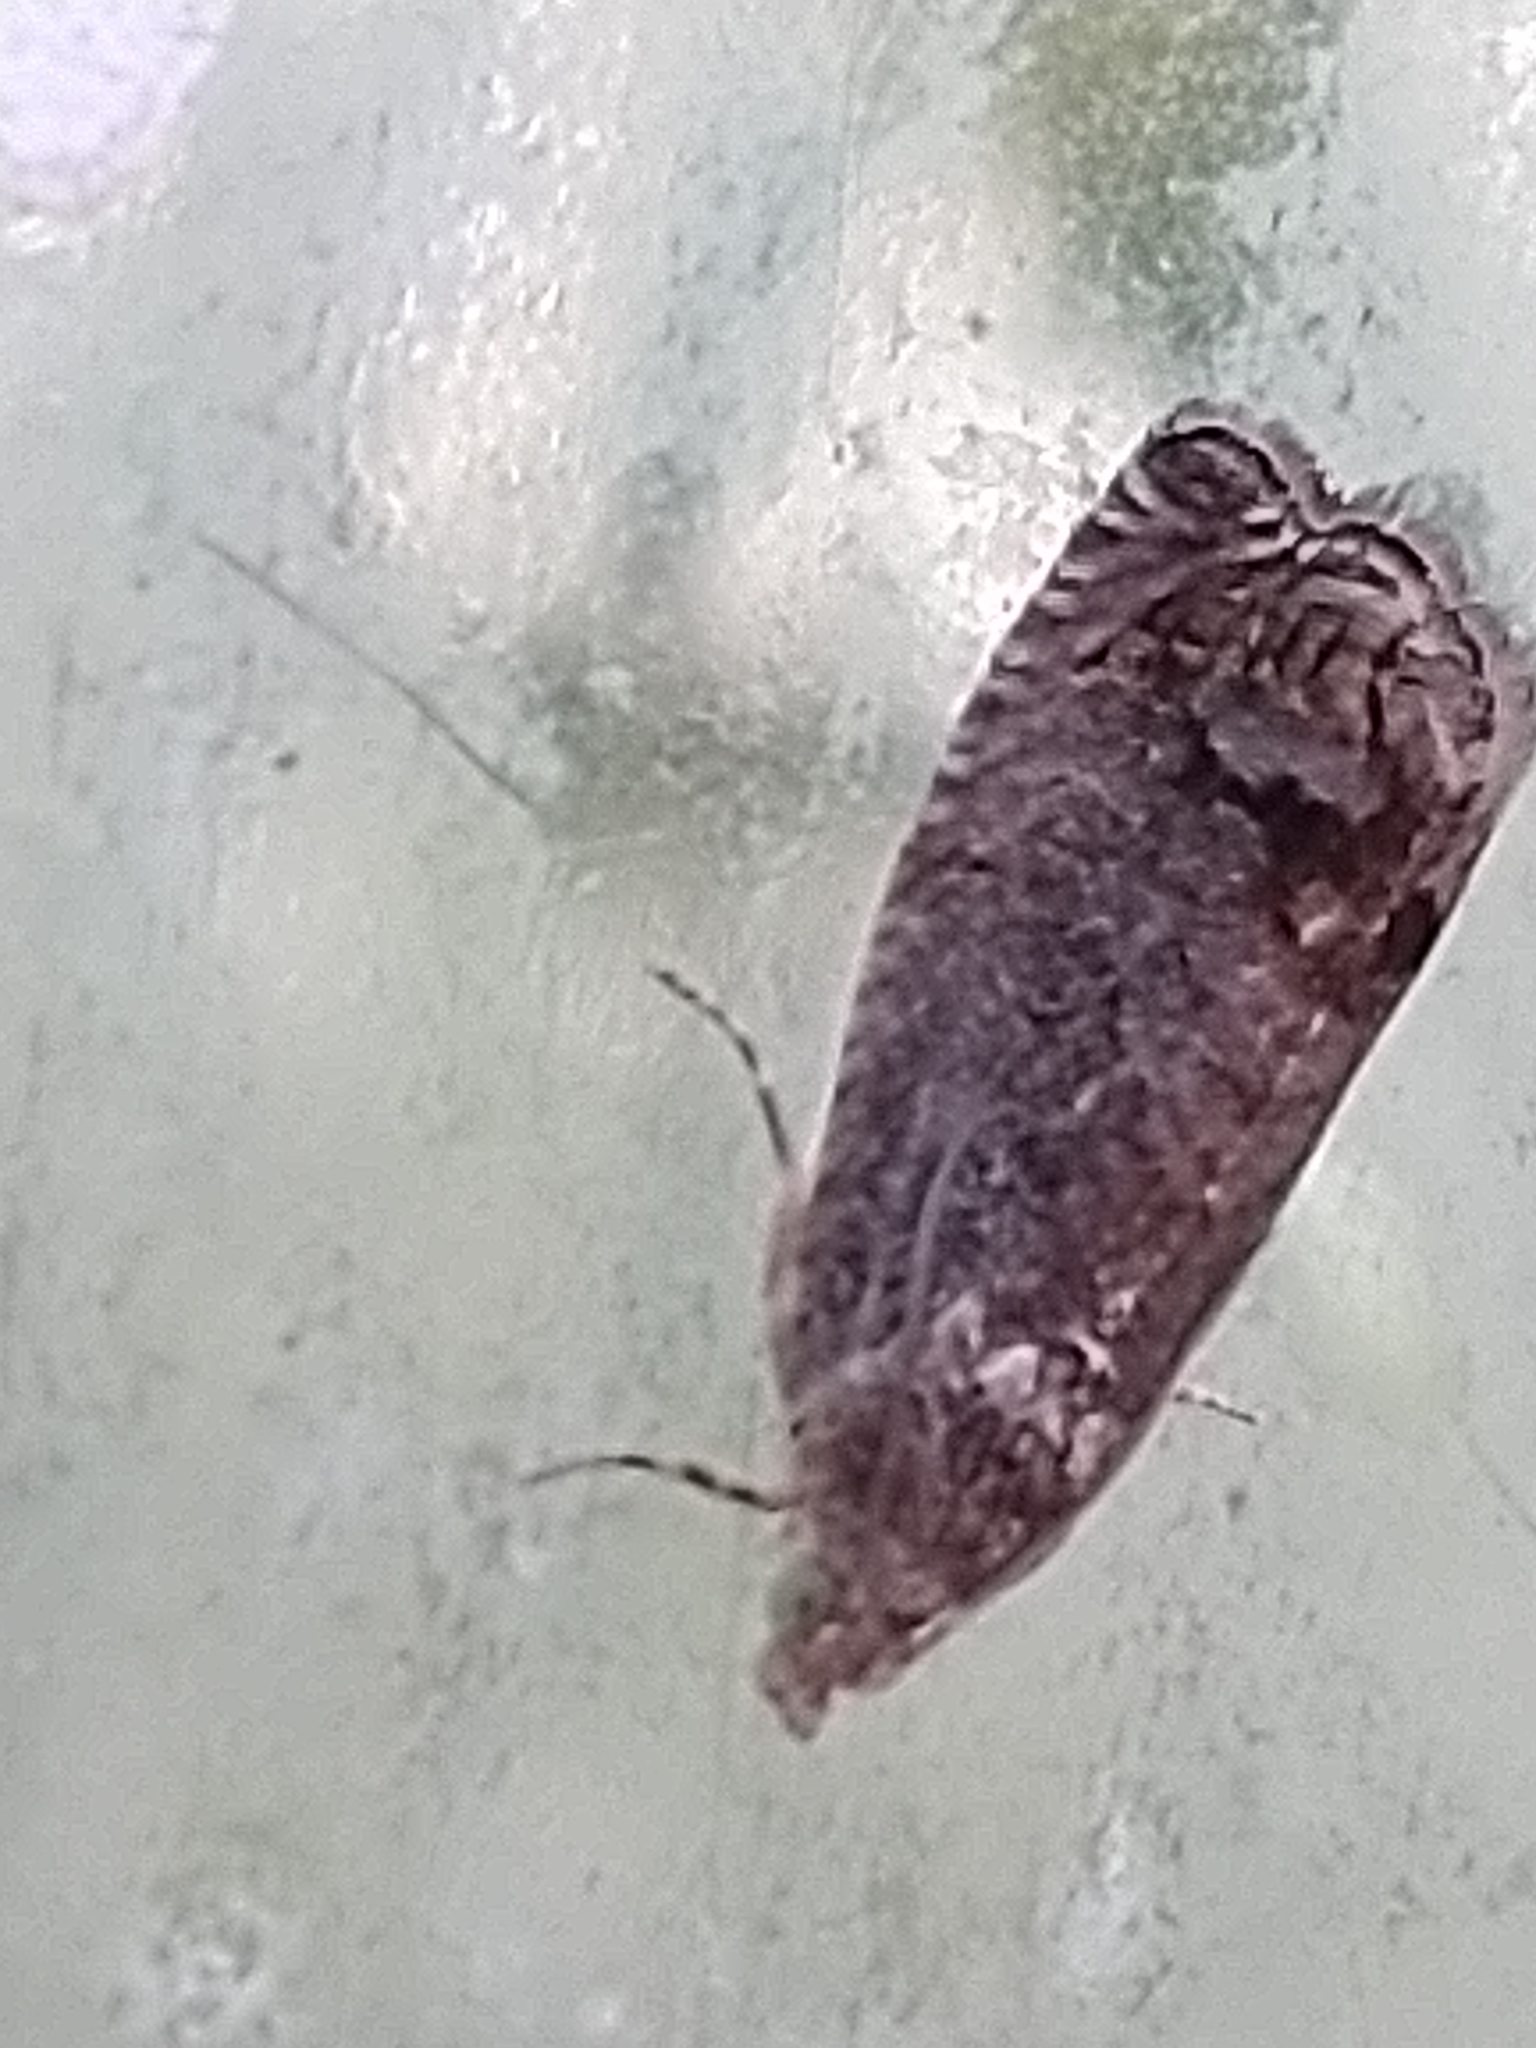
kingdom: Animalia
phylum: Arthropoda
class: Insecta
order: Lepidoptera
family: Tortricidae
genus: Cydia
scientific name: Cydia splendana
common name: De: kastanienwickler, eichenwickler es: oruga de la castaña fr: carpocapse des châtaignes it: cidia o tortrice tardiva delle castagne pt: bichado das castanhas gb: acorn moth, chestnut fruit tortrix
